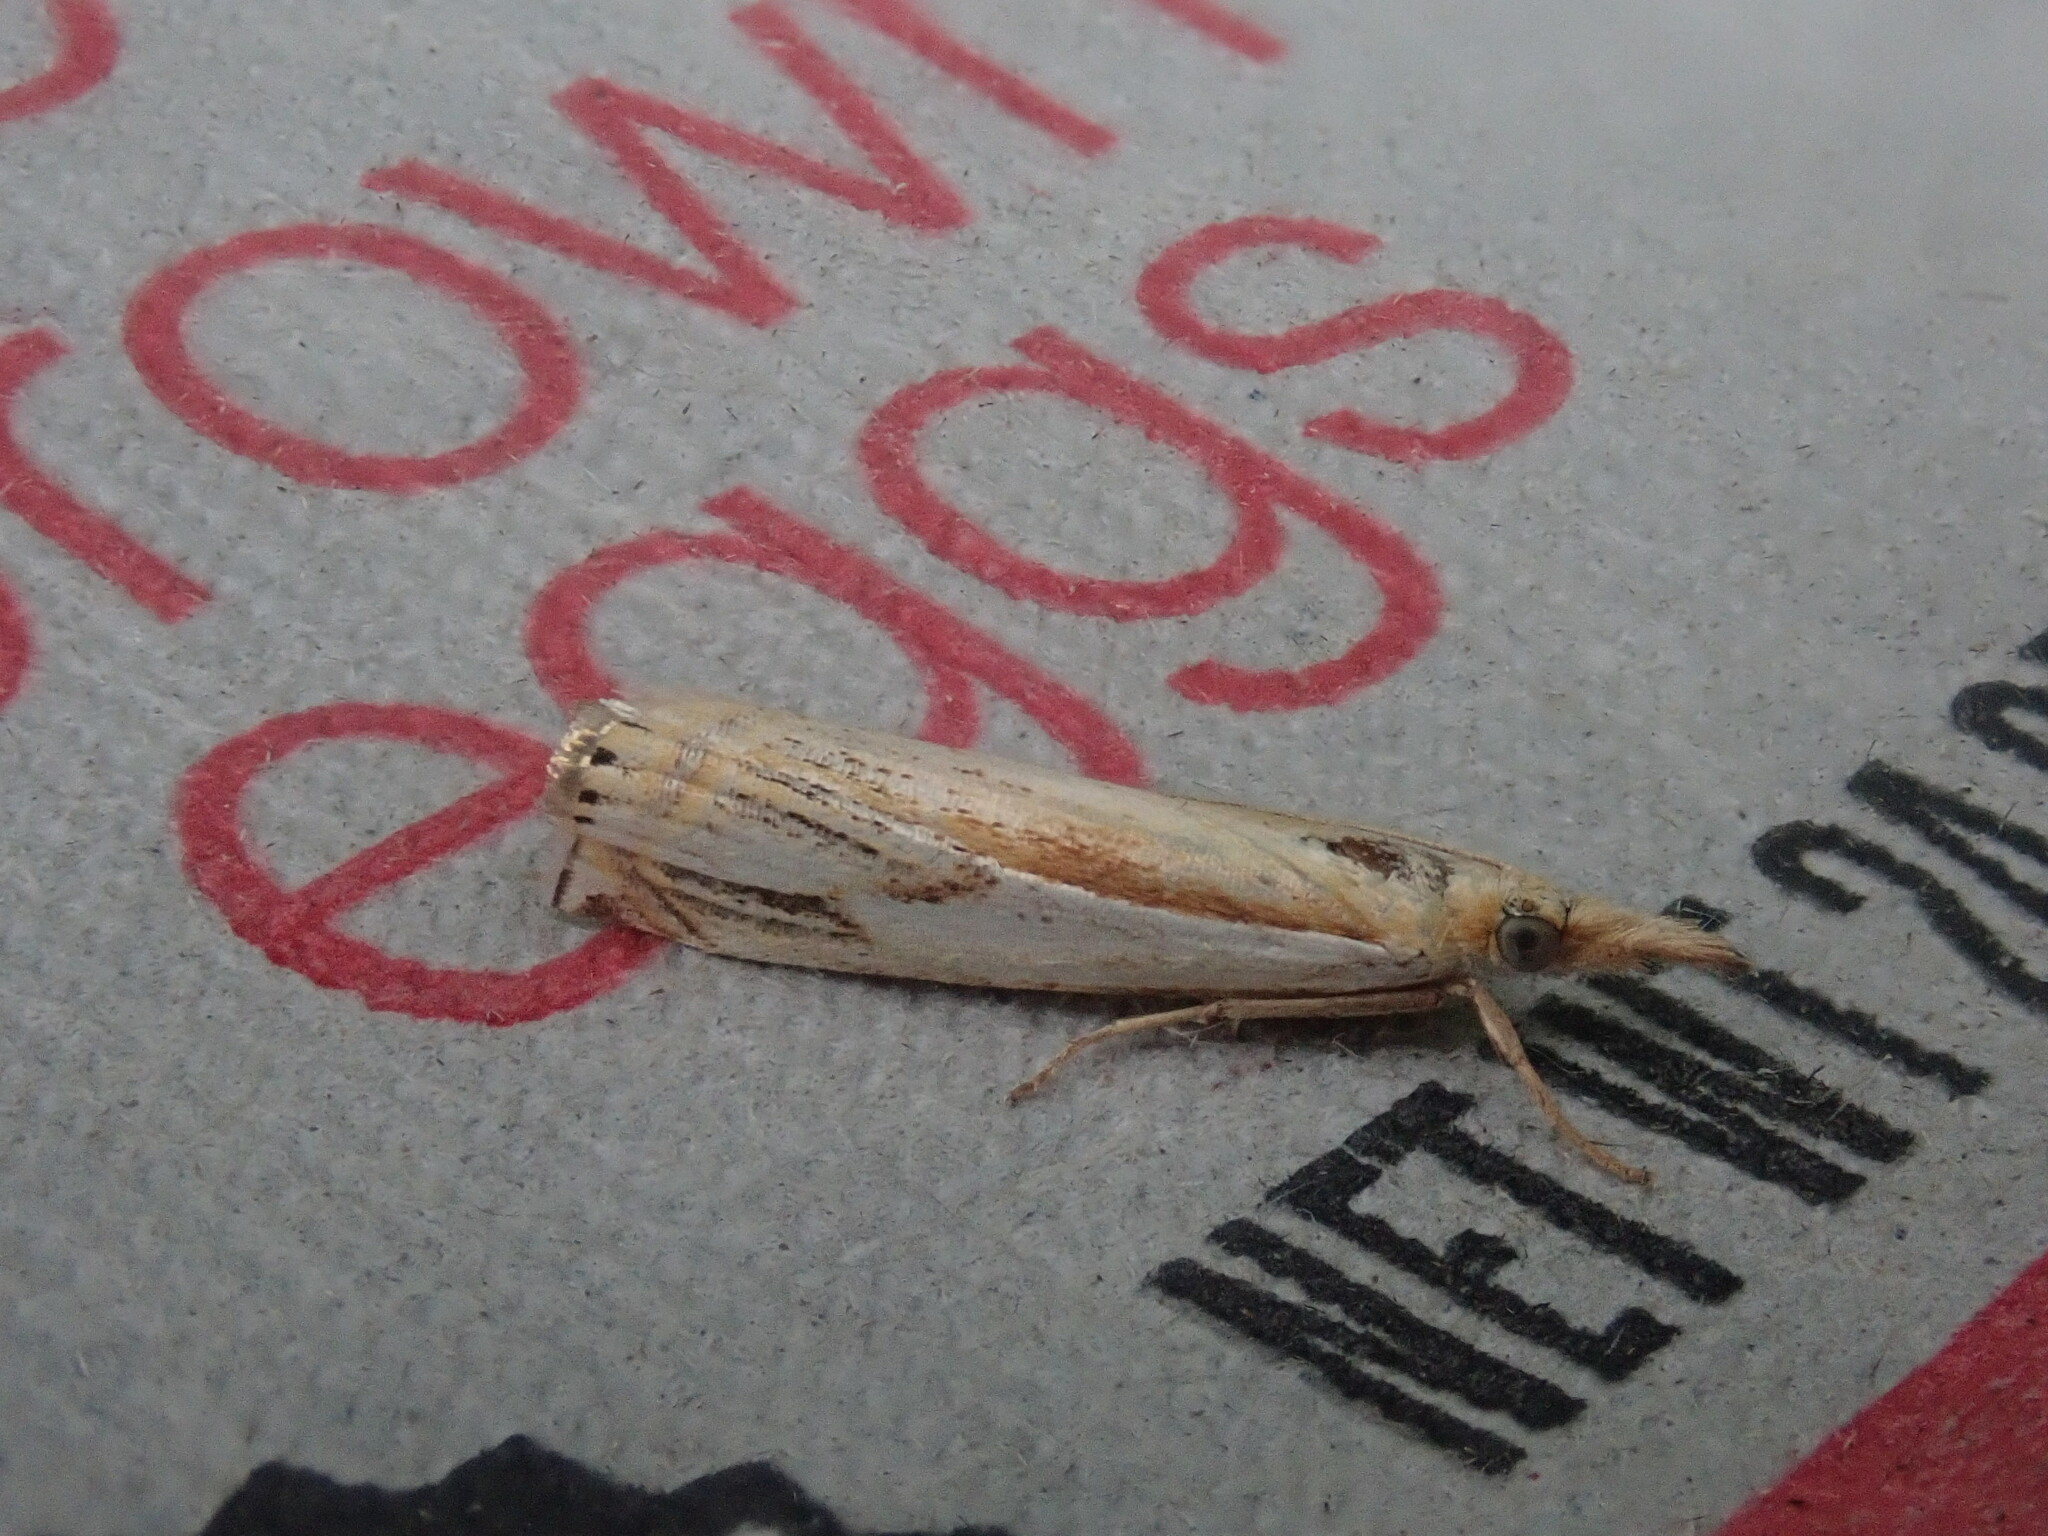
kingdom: Animalia
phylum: Arthropoda
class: Insecta
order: Lepidoptera
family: Crambidae
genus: Crambus
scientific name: Crambus agitatellus
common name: Double-banded grass-veneer
